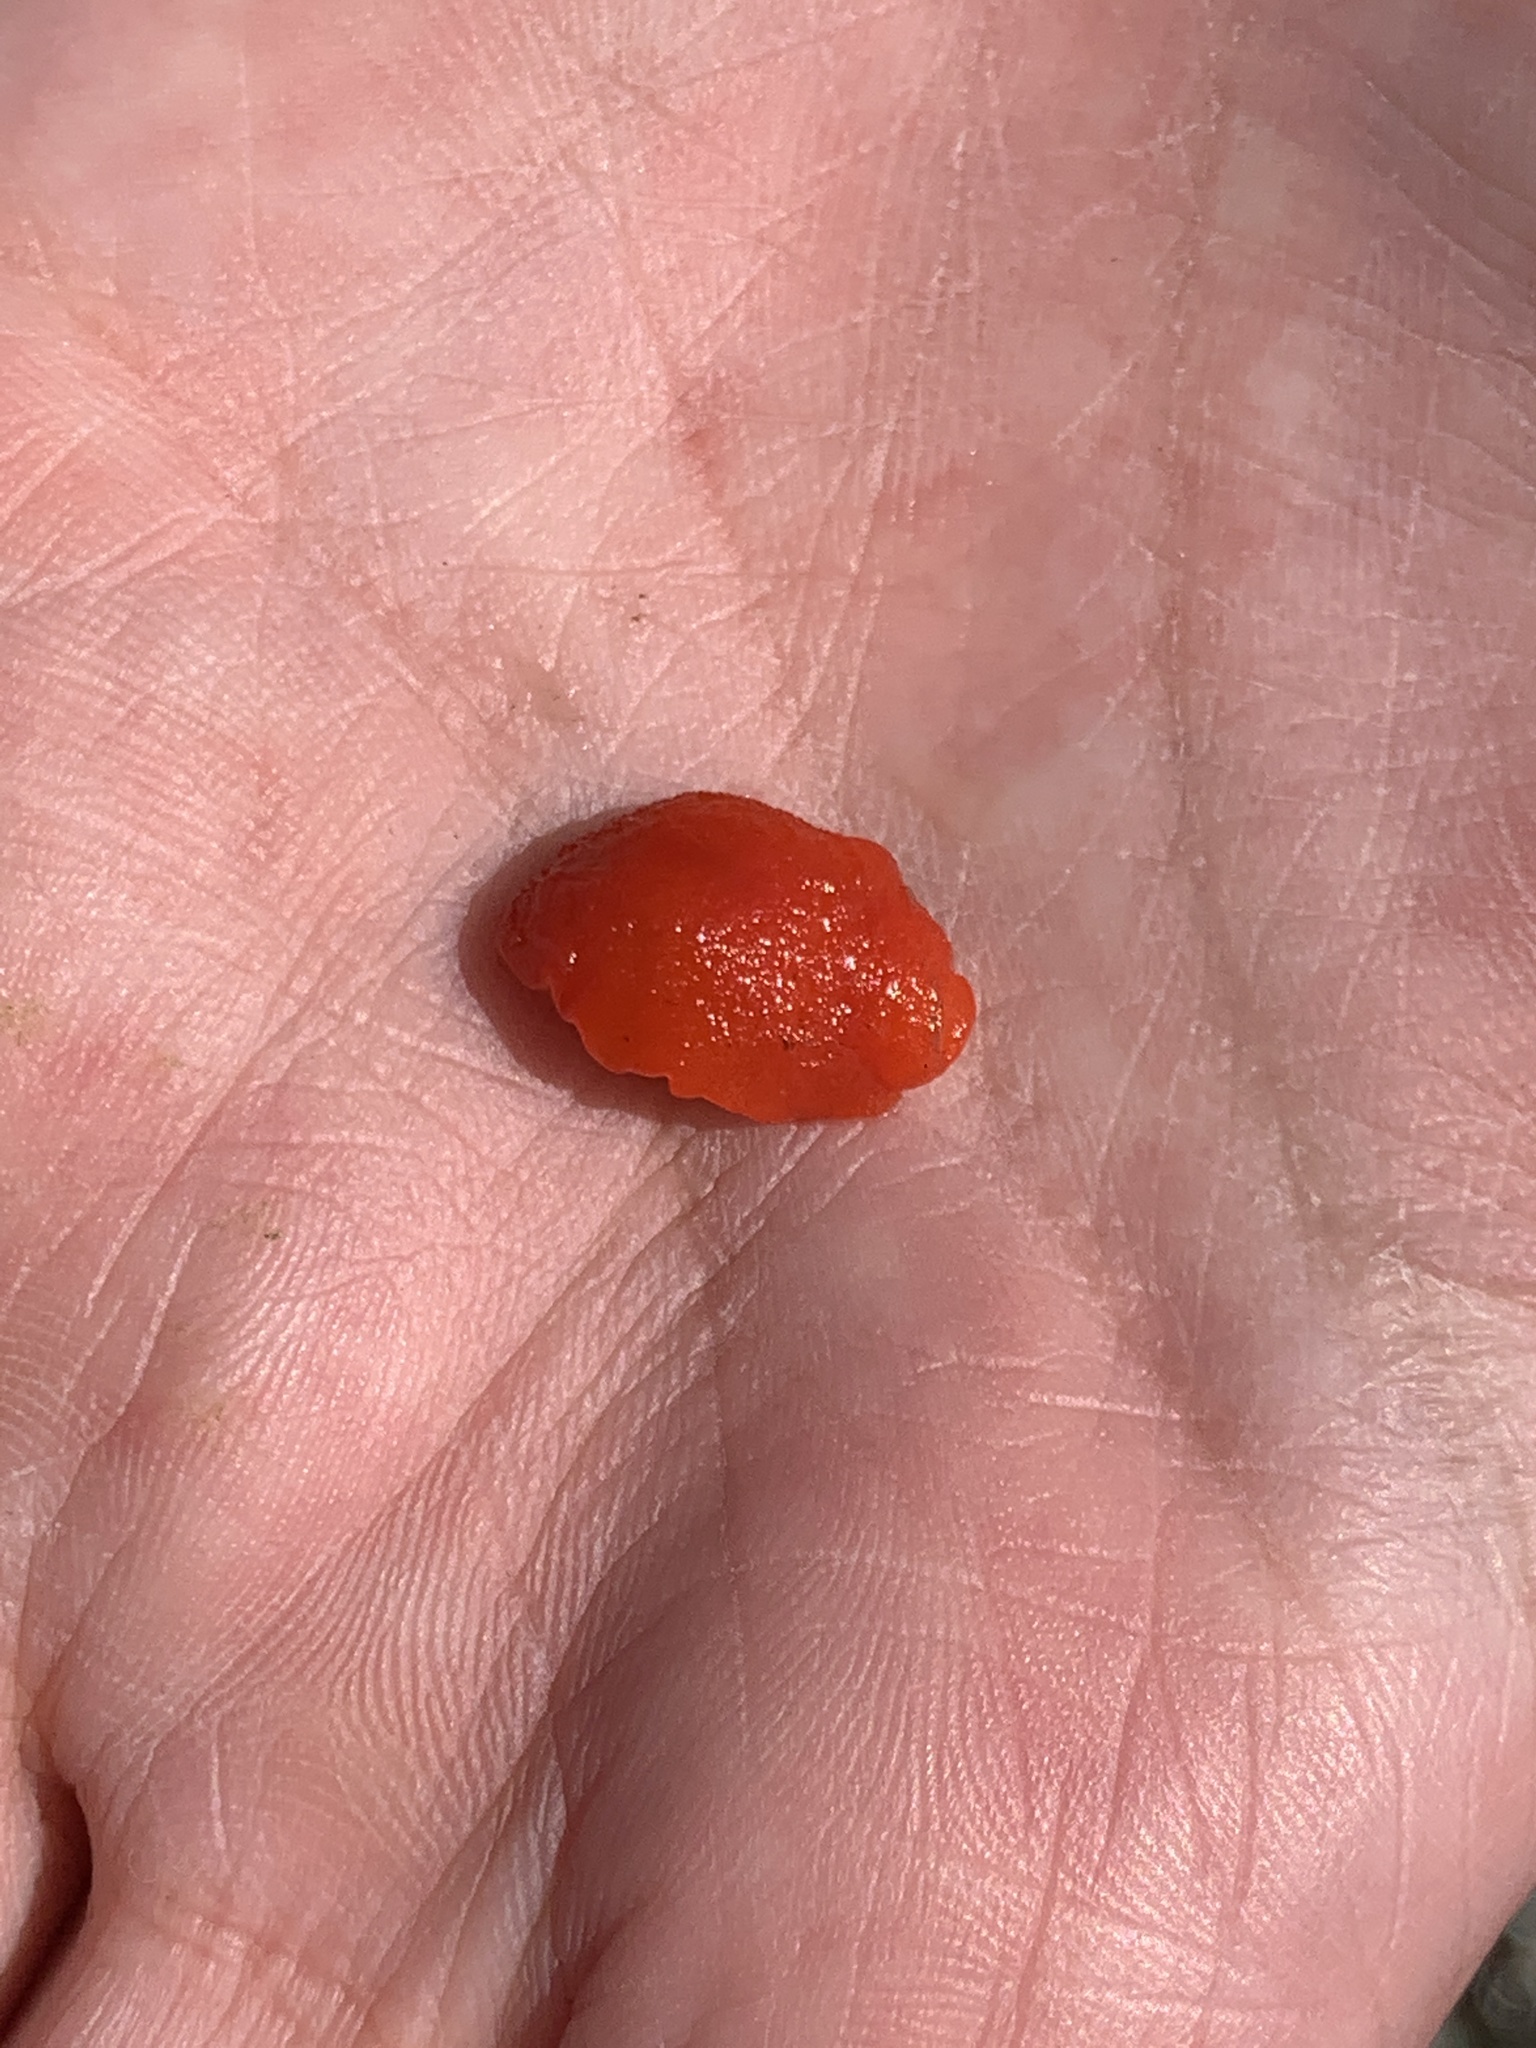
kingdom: Animalia
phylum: Mollusca
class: Gastropoda
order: Nudibranchia
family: Discodorididae
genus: Rostanga
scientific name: Rostanga pulchra
